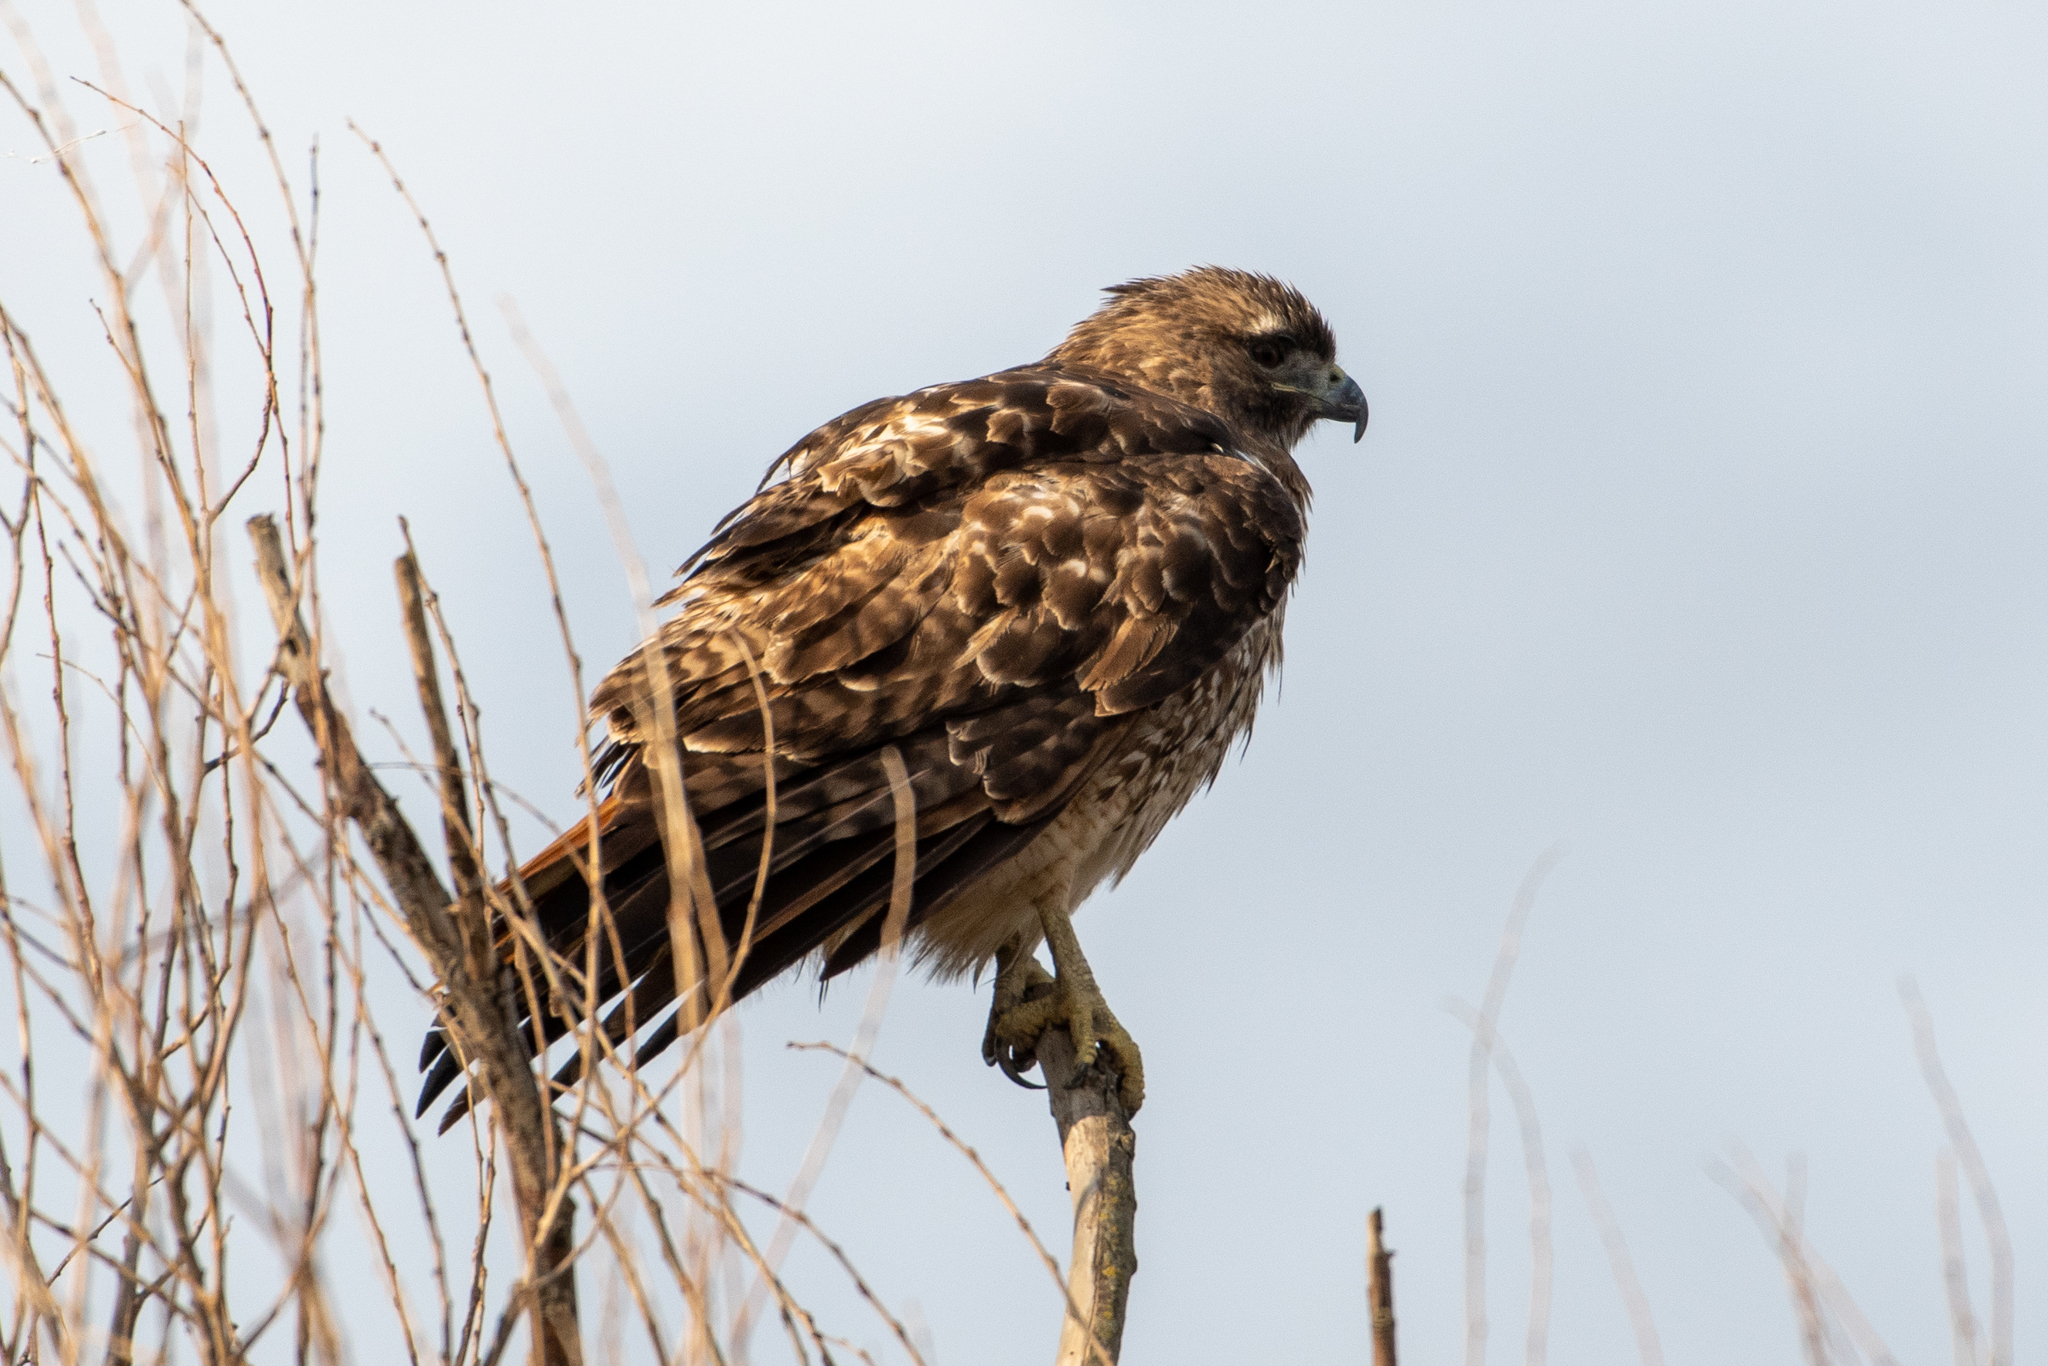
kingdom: Animalia
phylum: Chordata
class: Aves
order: Accipitriformes
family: Accipitridae
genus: Buteo
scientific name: Buteo jamaicensis
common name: Red-tailed hawk
